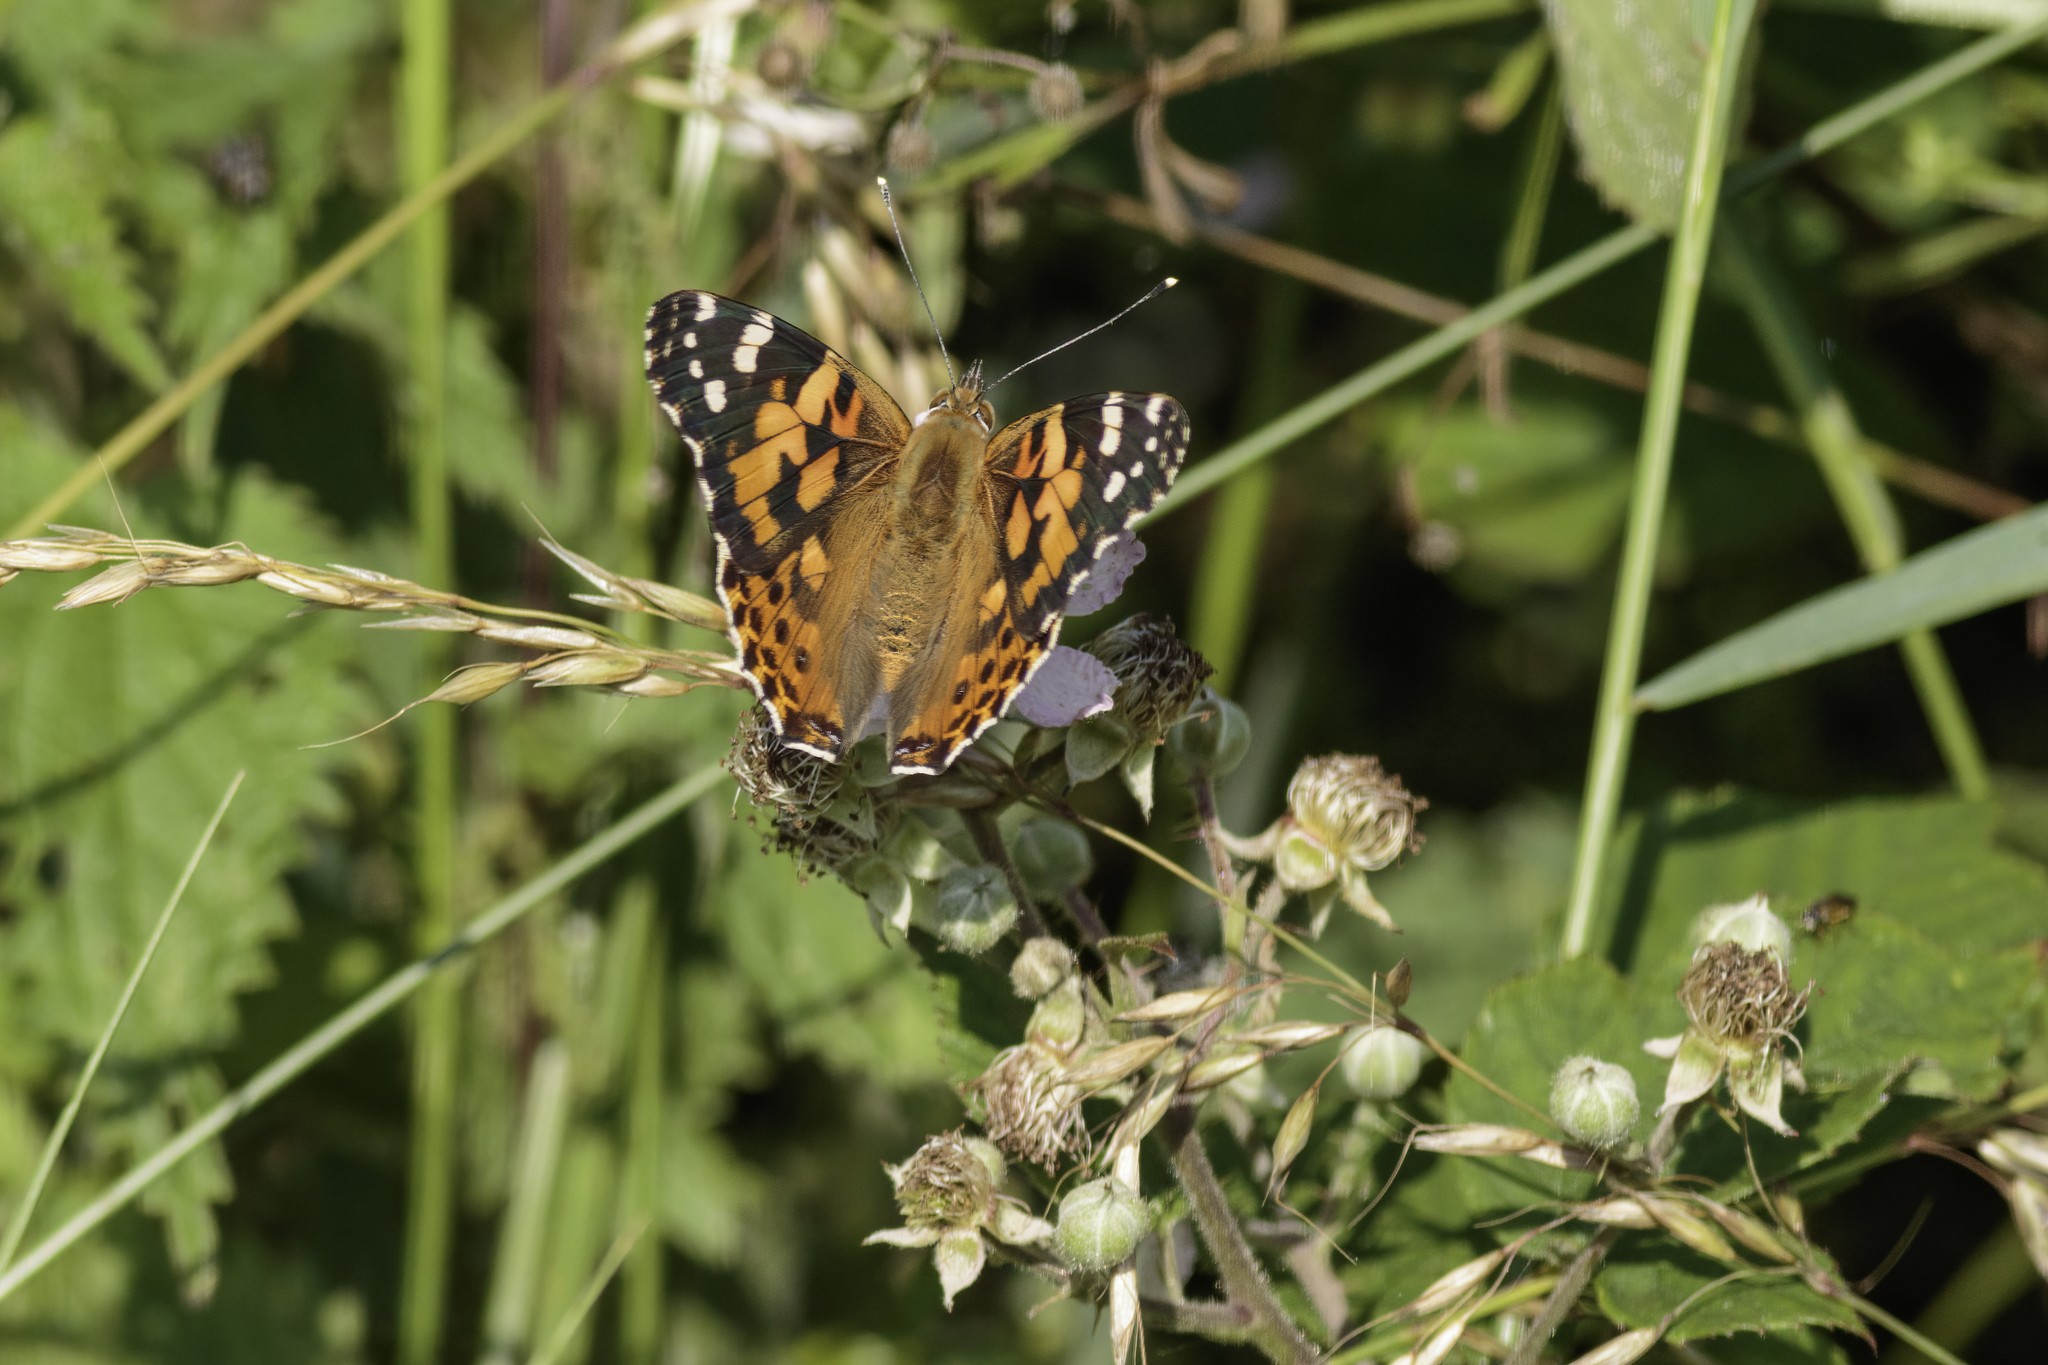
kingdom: Animalia
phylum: Arthropoda
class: Insecta
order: Lepidoptera
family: Nymphalidae
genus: Vanessa
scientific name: Vanessa cardui
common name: Painted lady
